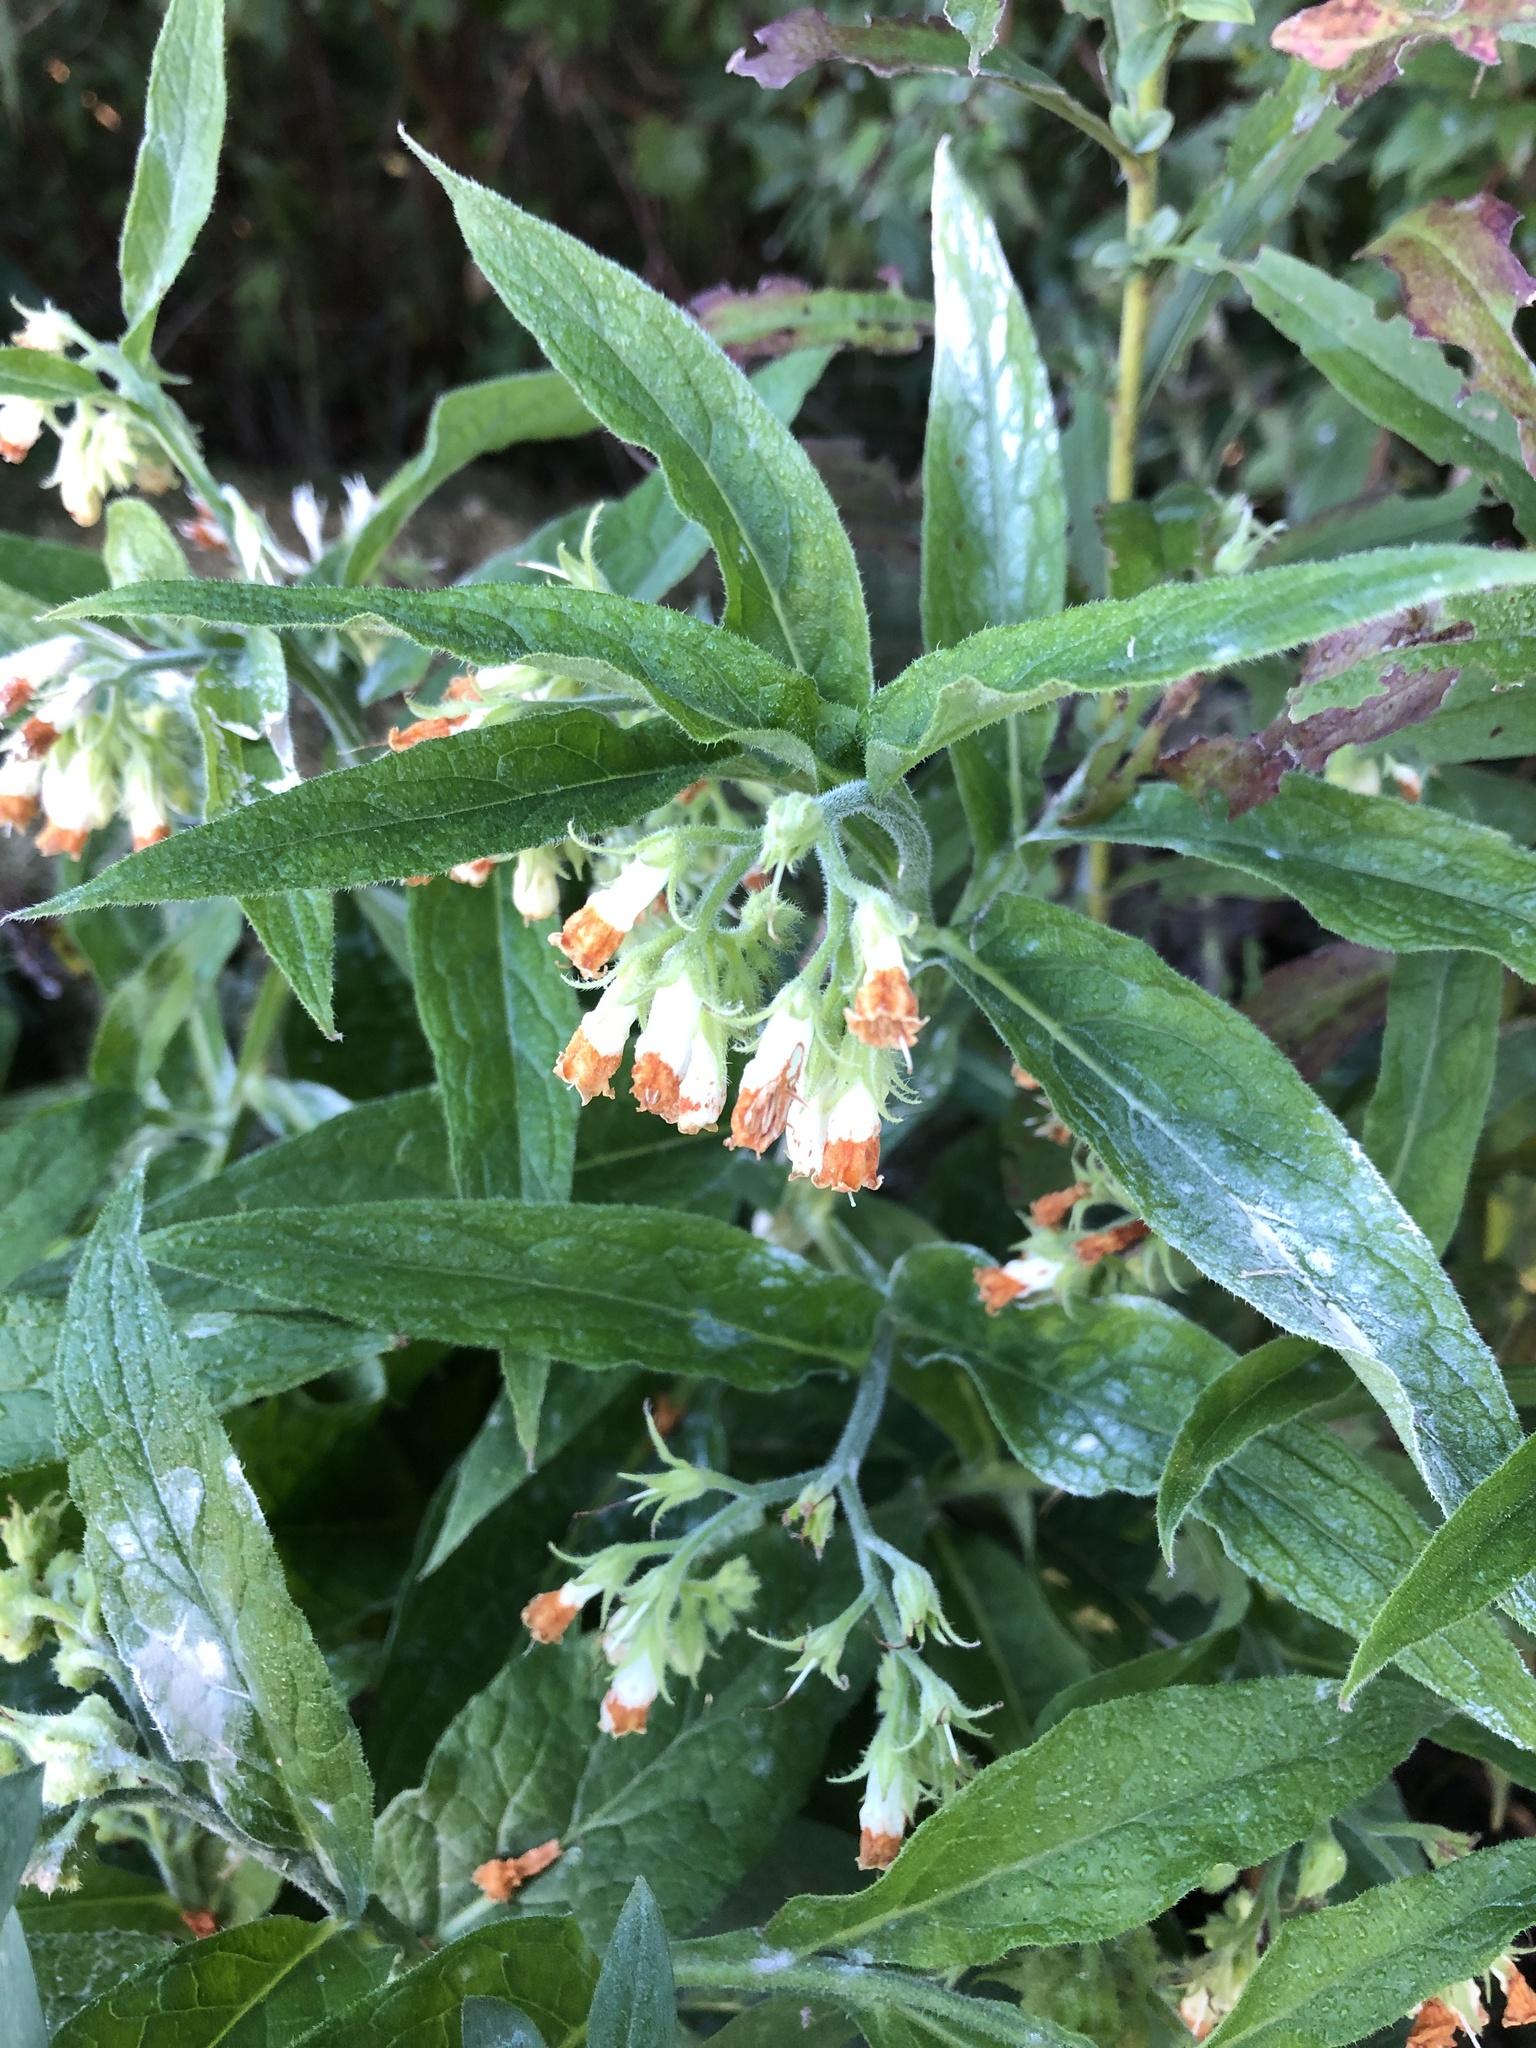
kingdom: Plantae
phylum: Tracheophyta
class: Magnoliopsida
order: Boraginales
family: Boraginaceae
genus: Symphytum
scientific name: Symphytum officinale
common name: Common comfrey
